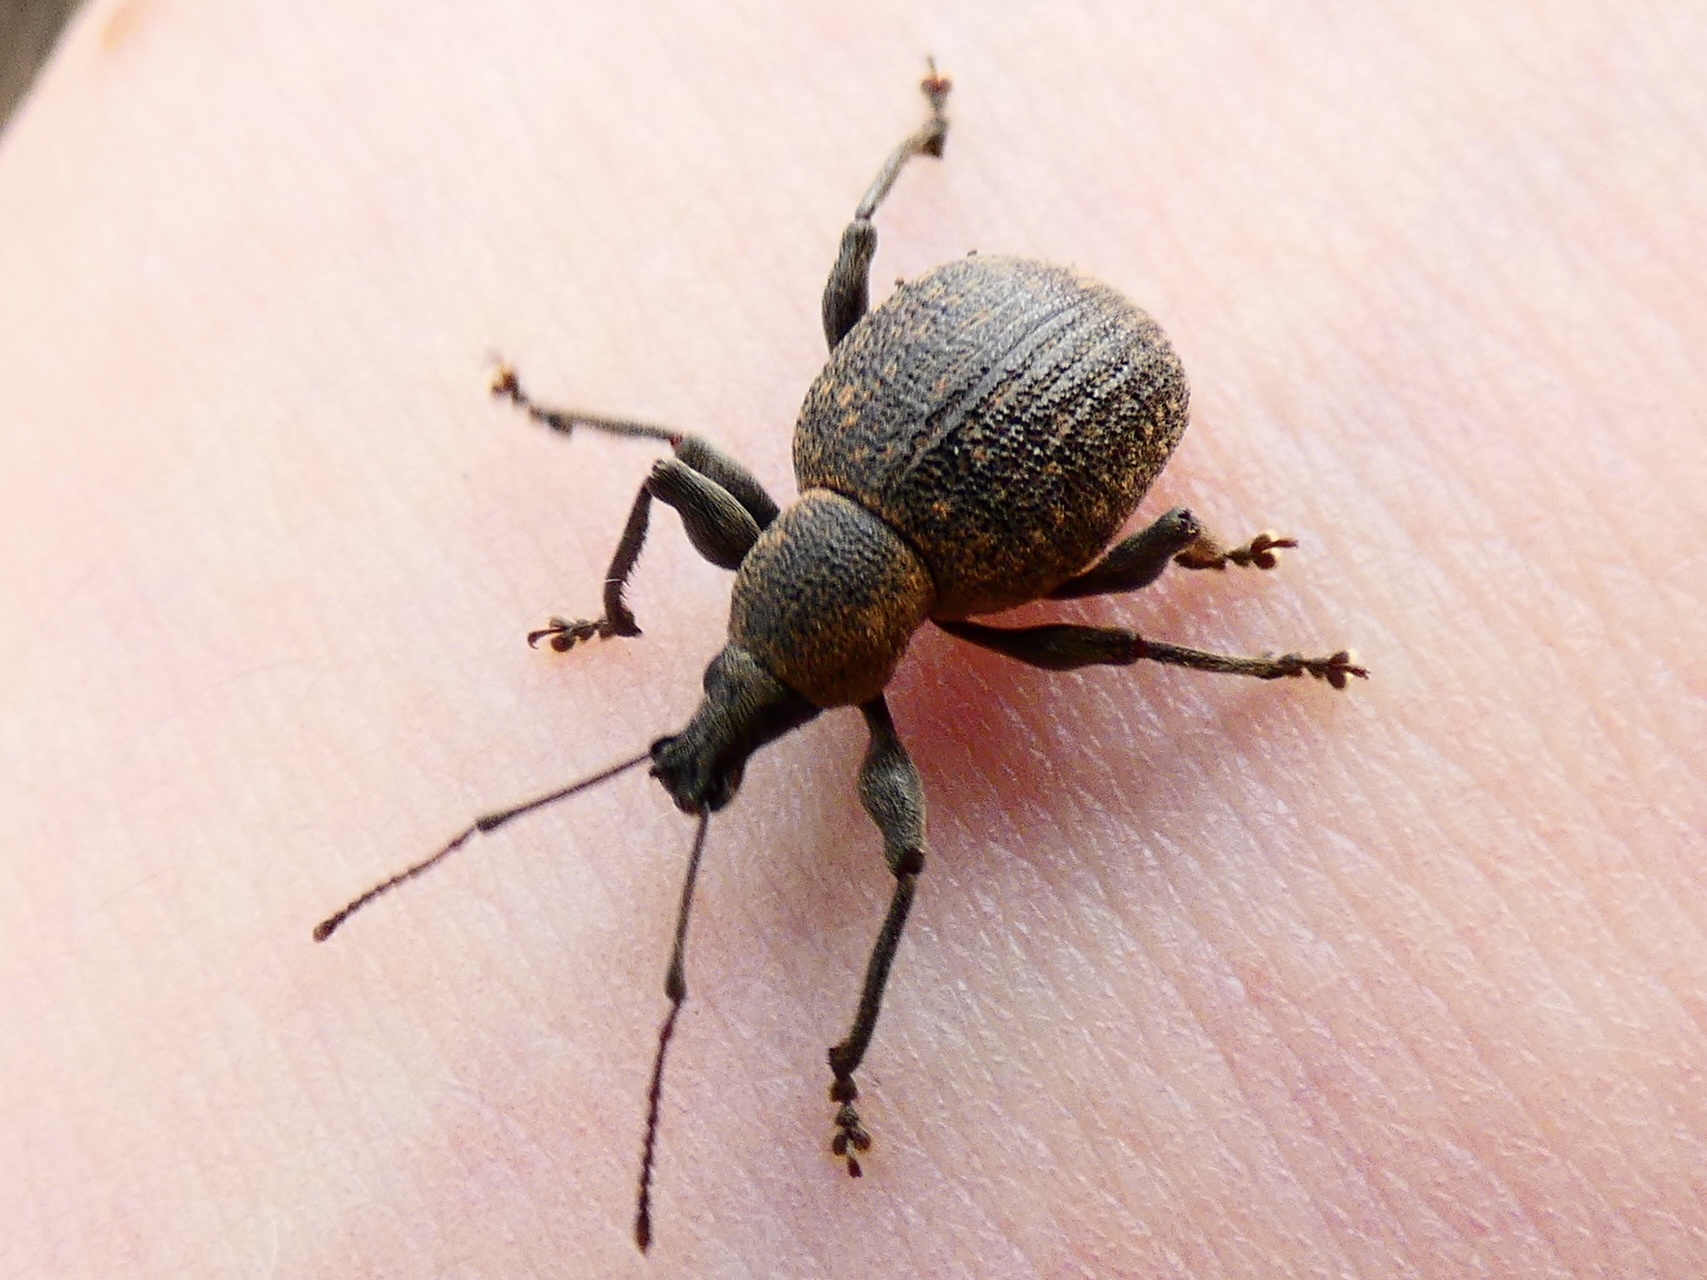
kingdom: Animalia
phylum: Arthropoda
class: Insecta
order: Coleoptera
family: Curculionidae
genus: Otiorhynchus
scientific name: Otiorhynchus armadillo
